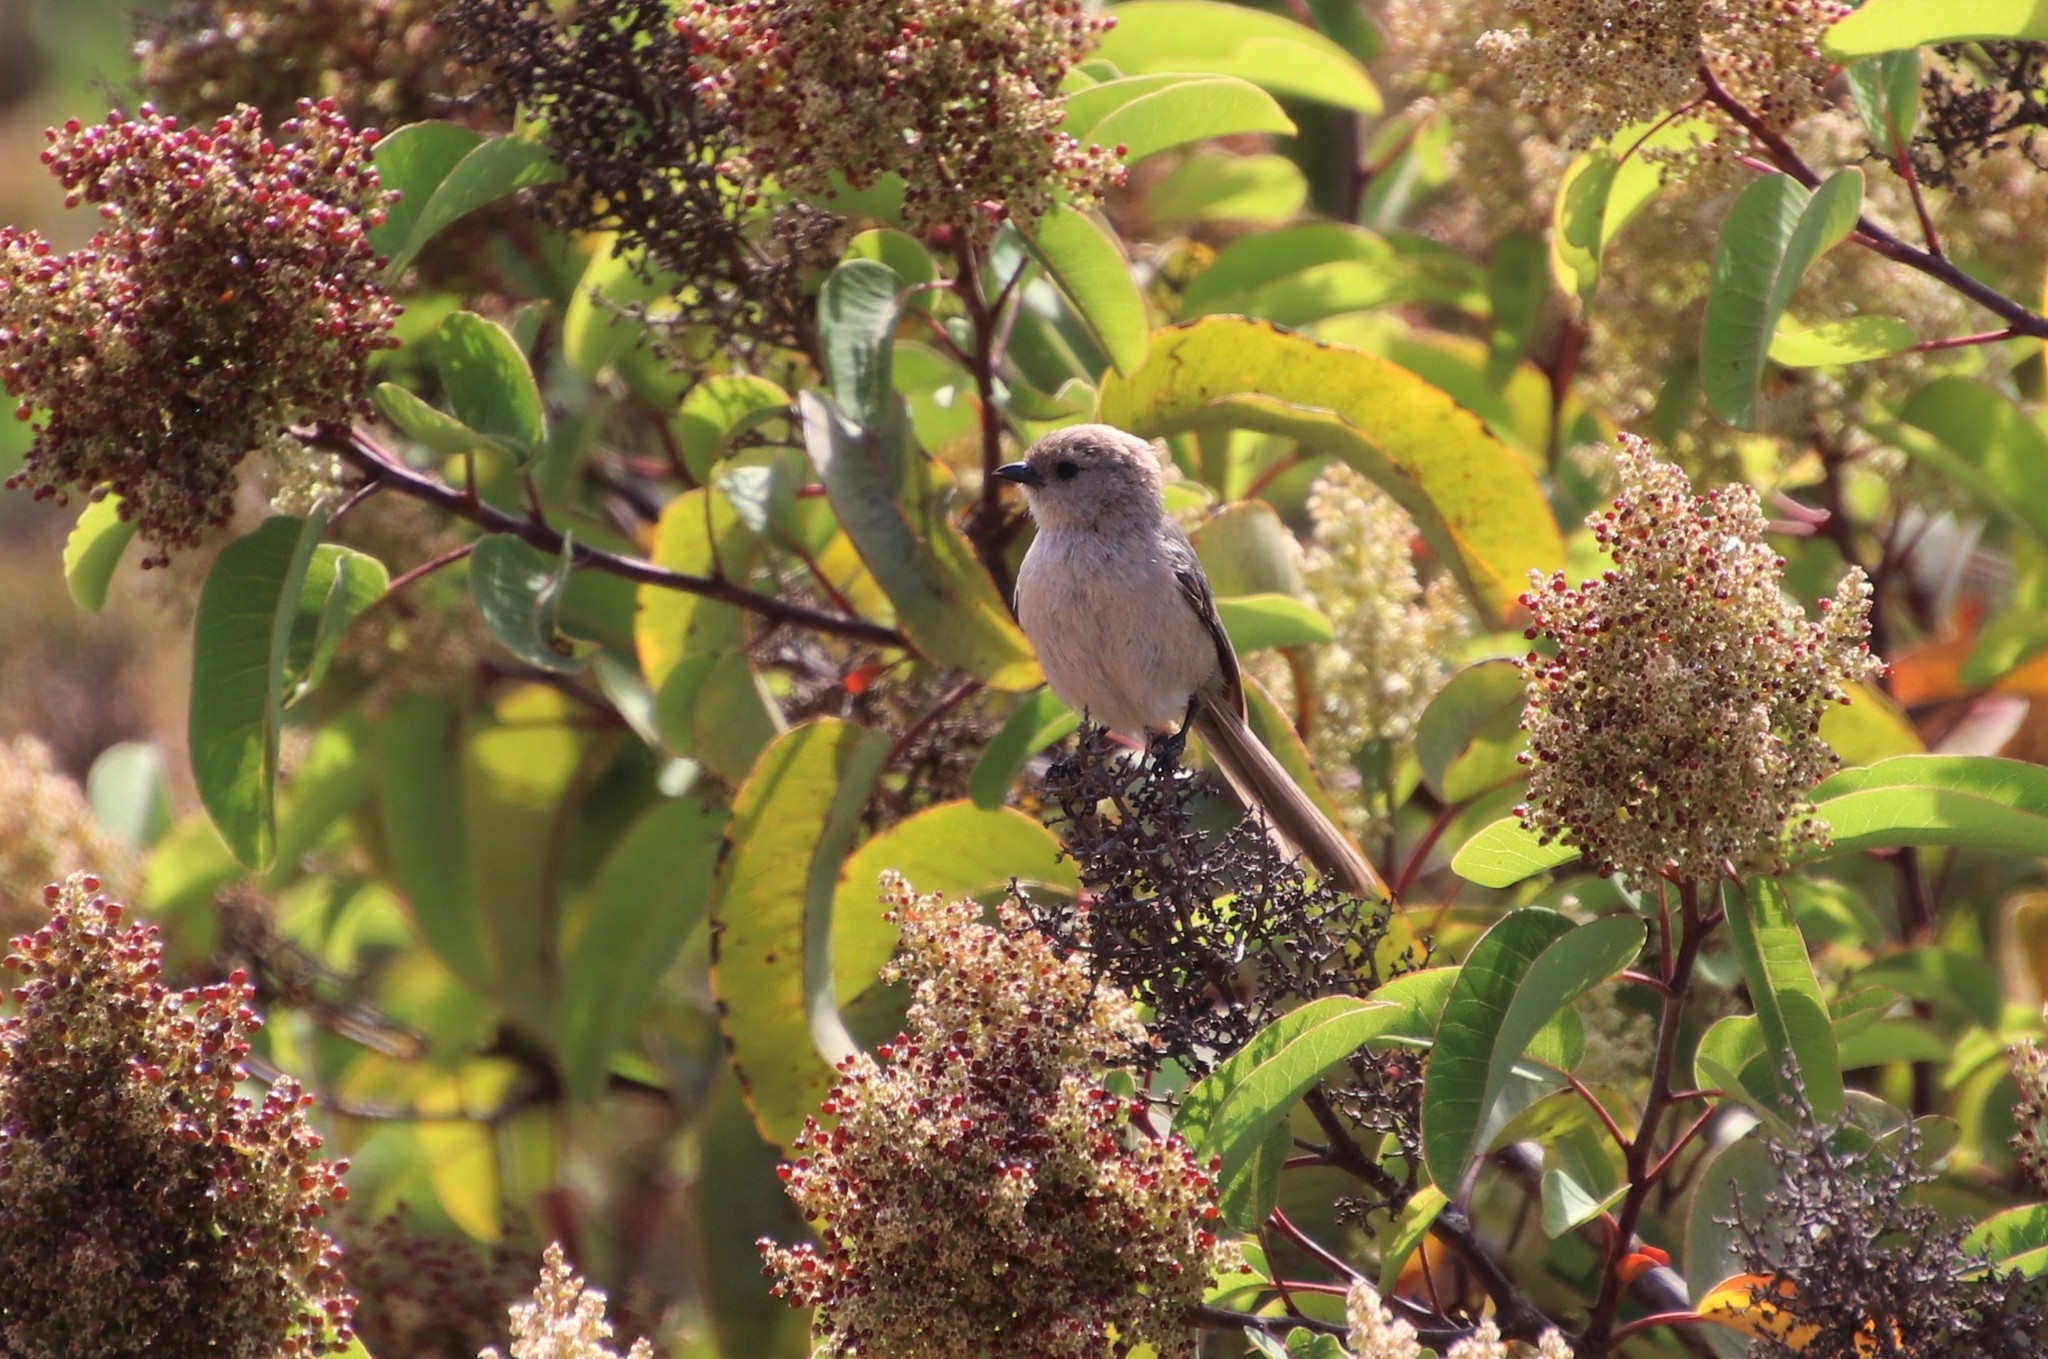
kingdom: Animalia
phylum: Chordata
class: Aves
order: Passeriformes
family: Aegithalidae
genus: Psaltriparus
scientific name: Psaltriparus minimus
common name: American bushtit
